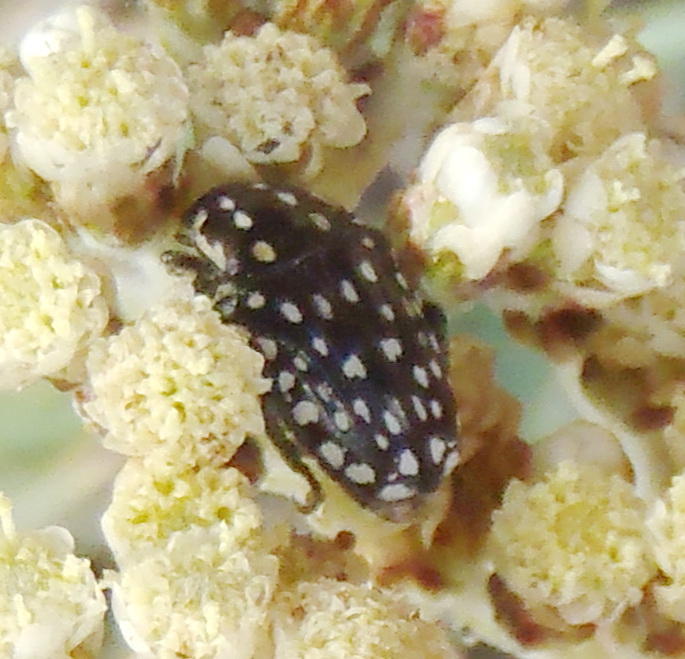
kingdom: Animalia
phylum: Arthropoda
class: Insecta
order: Coleoptera
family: Scarabaeidae
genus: Cyrtothyrea
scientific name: Cyrtothyrea testaceoguttata
